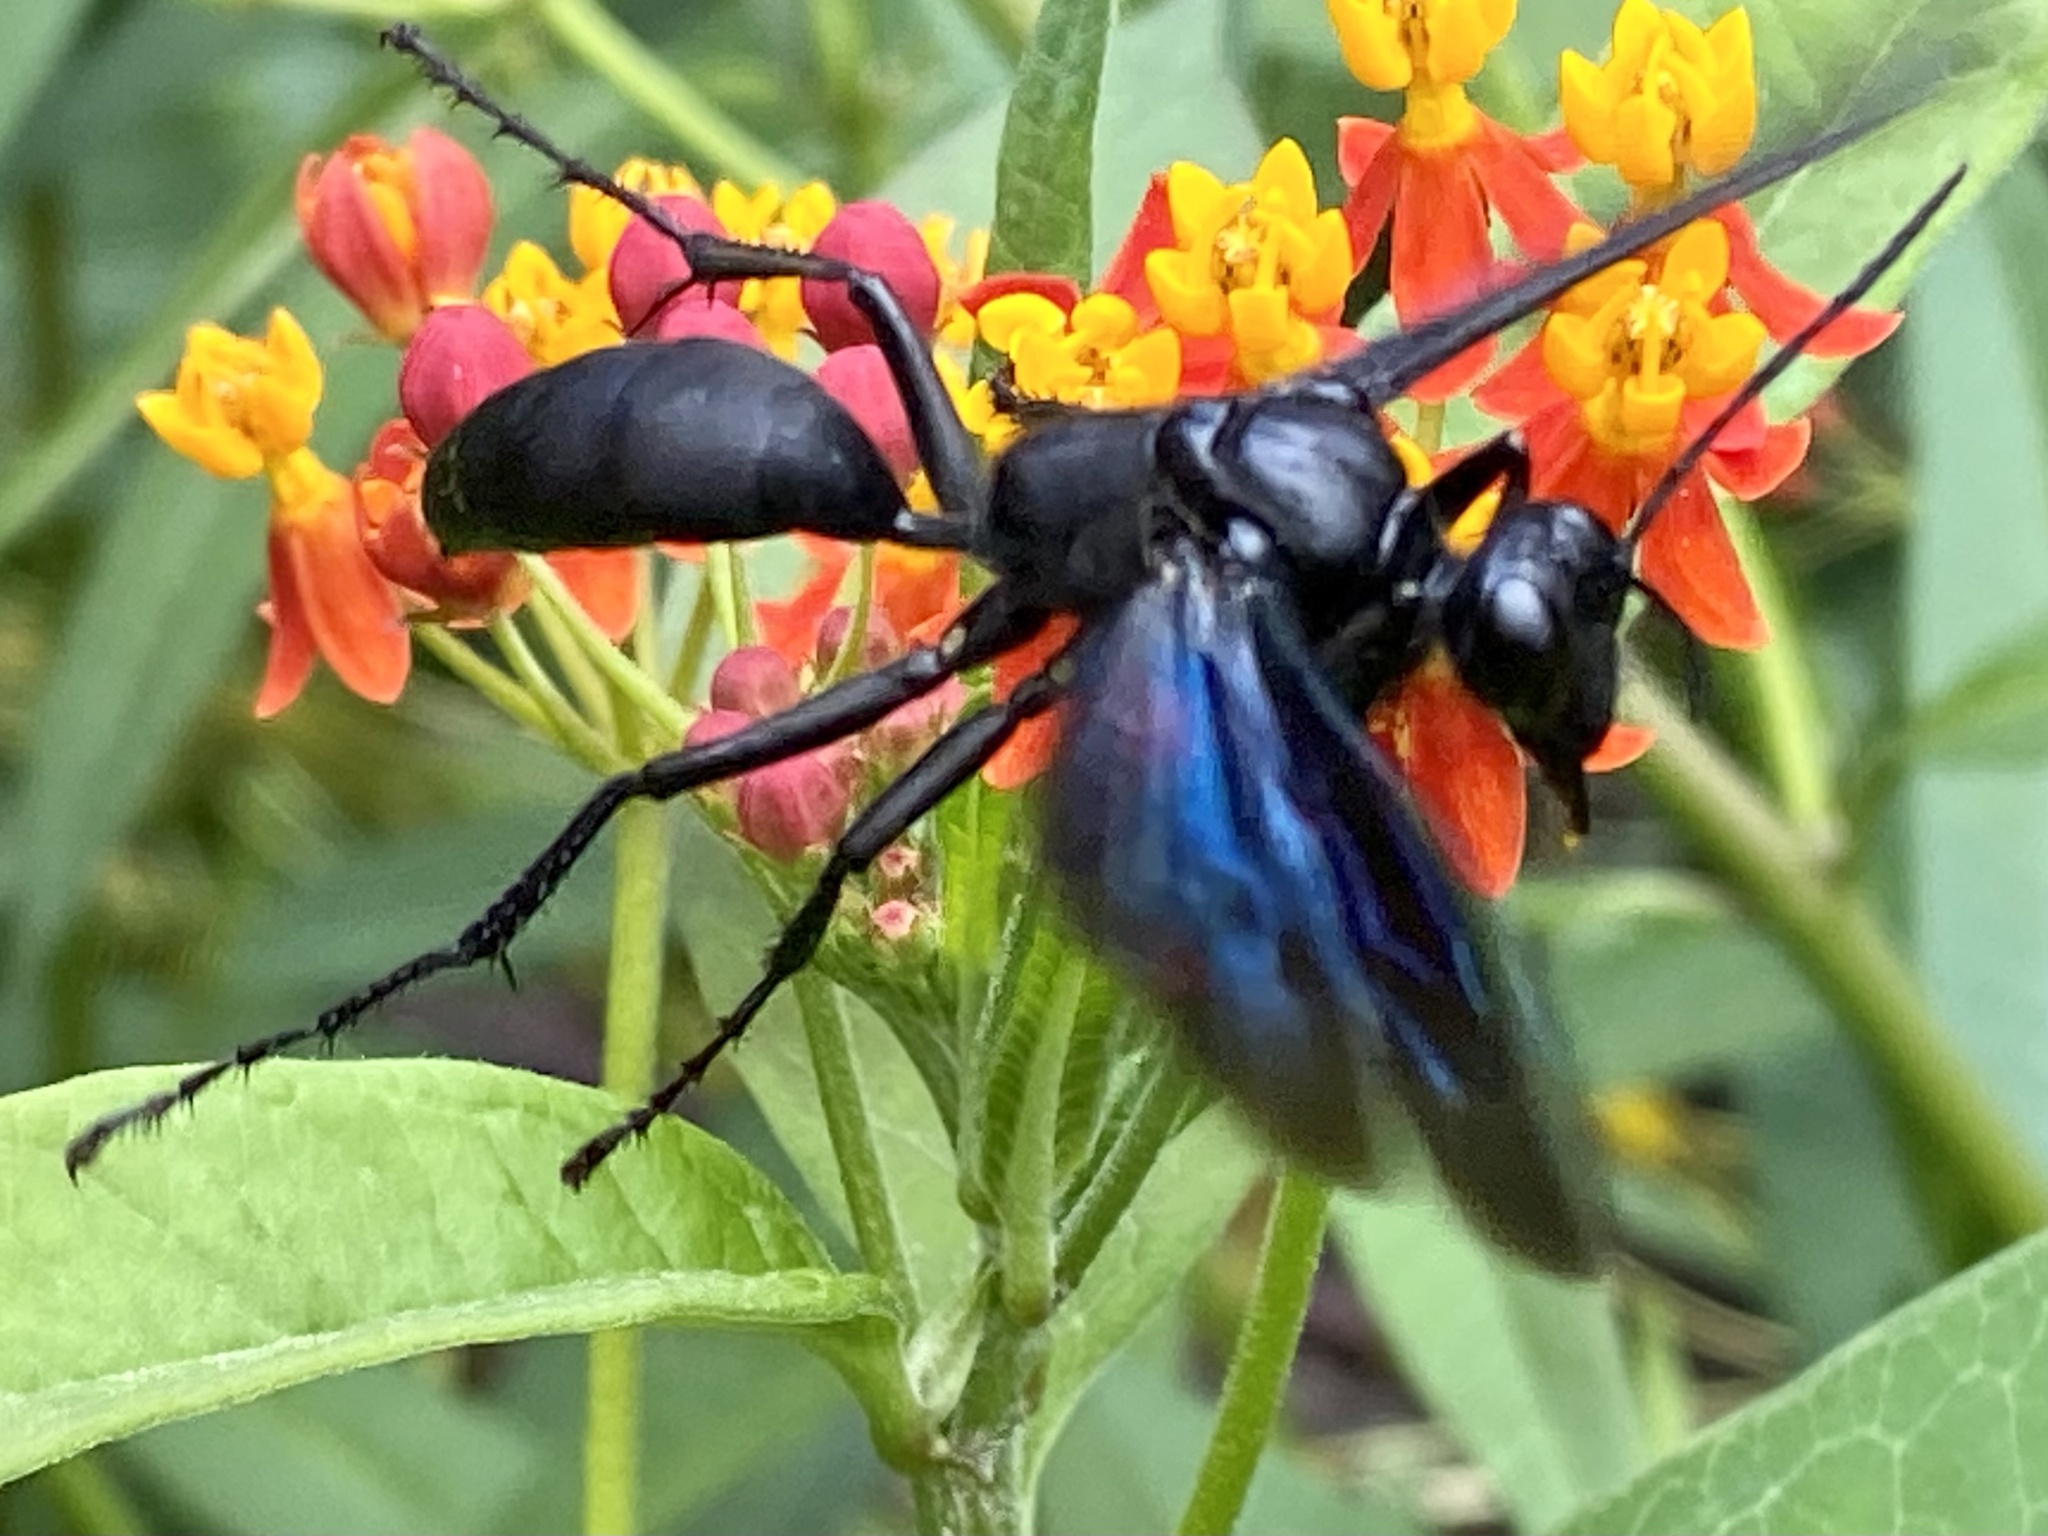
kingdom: Animalia
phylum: Arthropoda
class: Insecta
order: Hymenoptera
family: Sphecidae
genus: Sphex
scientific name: Sphex pensylvanicus
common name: Great black digger wasp
